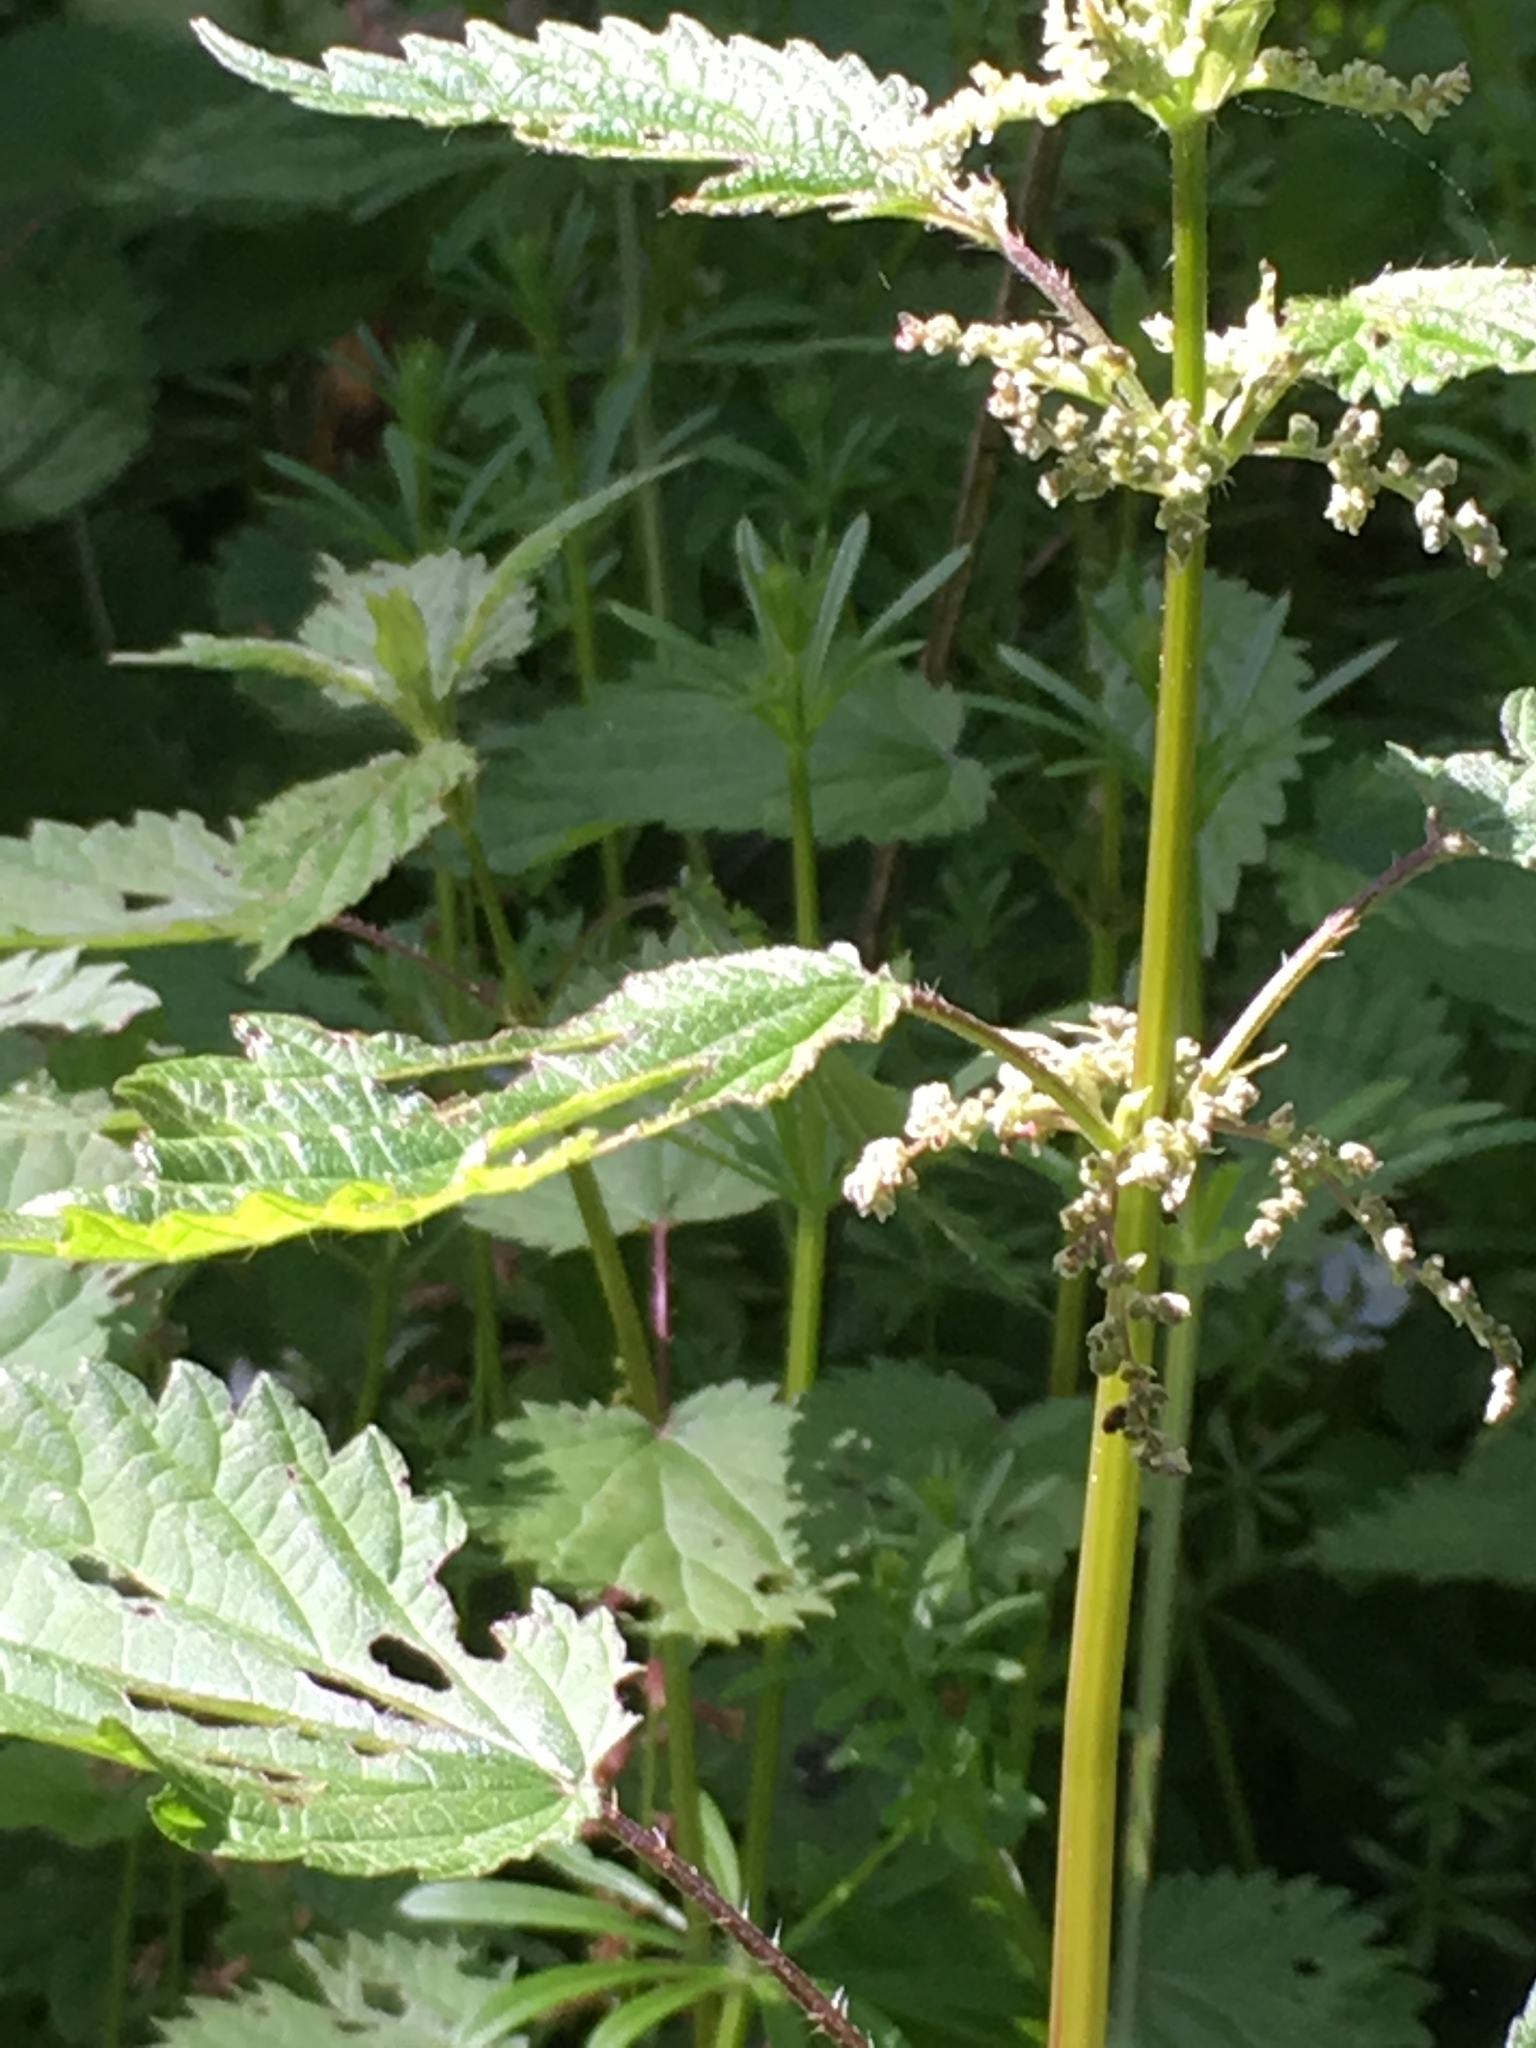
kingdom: Plantae
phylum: Tracheophyta
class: Magnoliopsida
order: Rosales
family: Urticaceae
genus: Urtica
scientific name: Urtica dioica
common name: Common nettle
